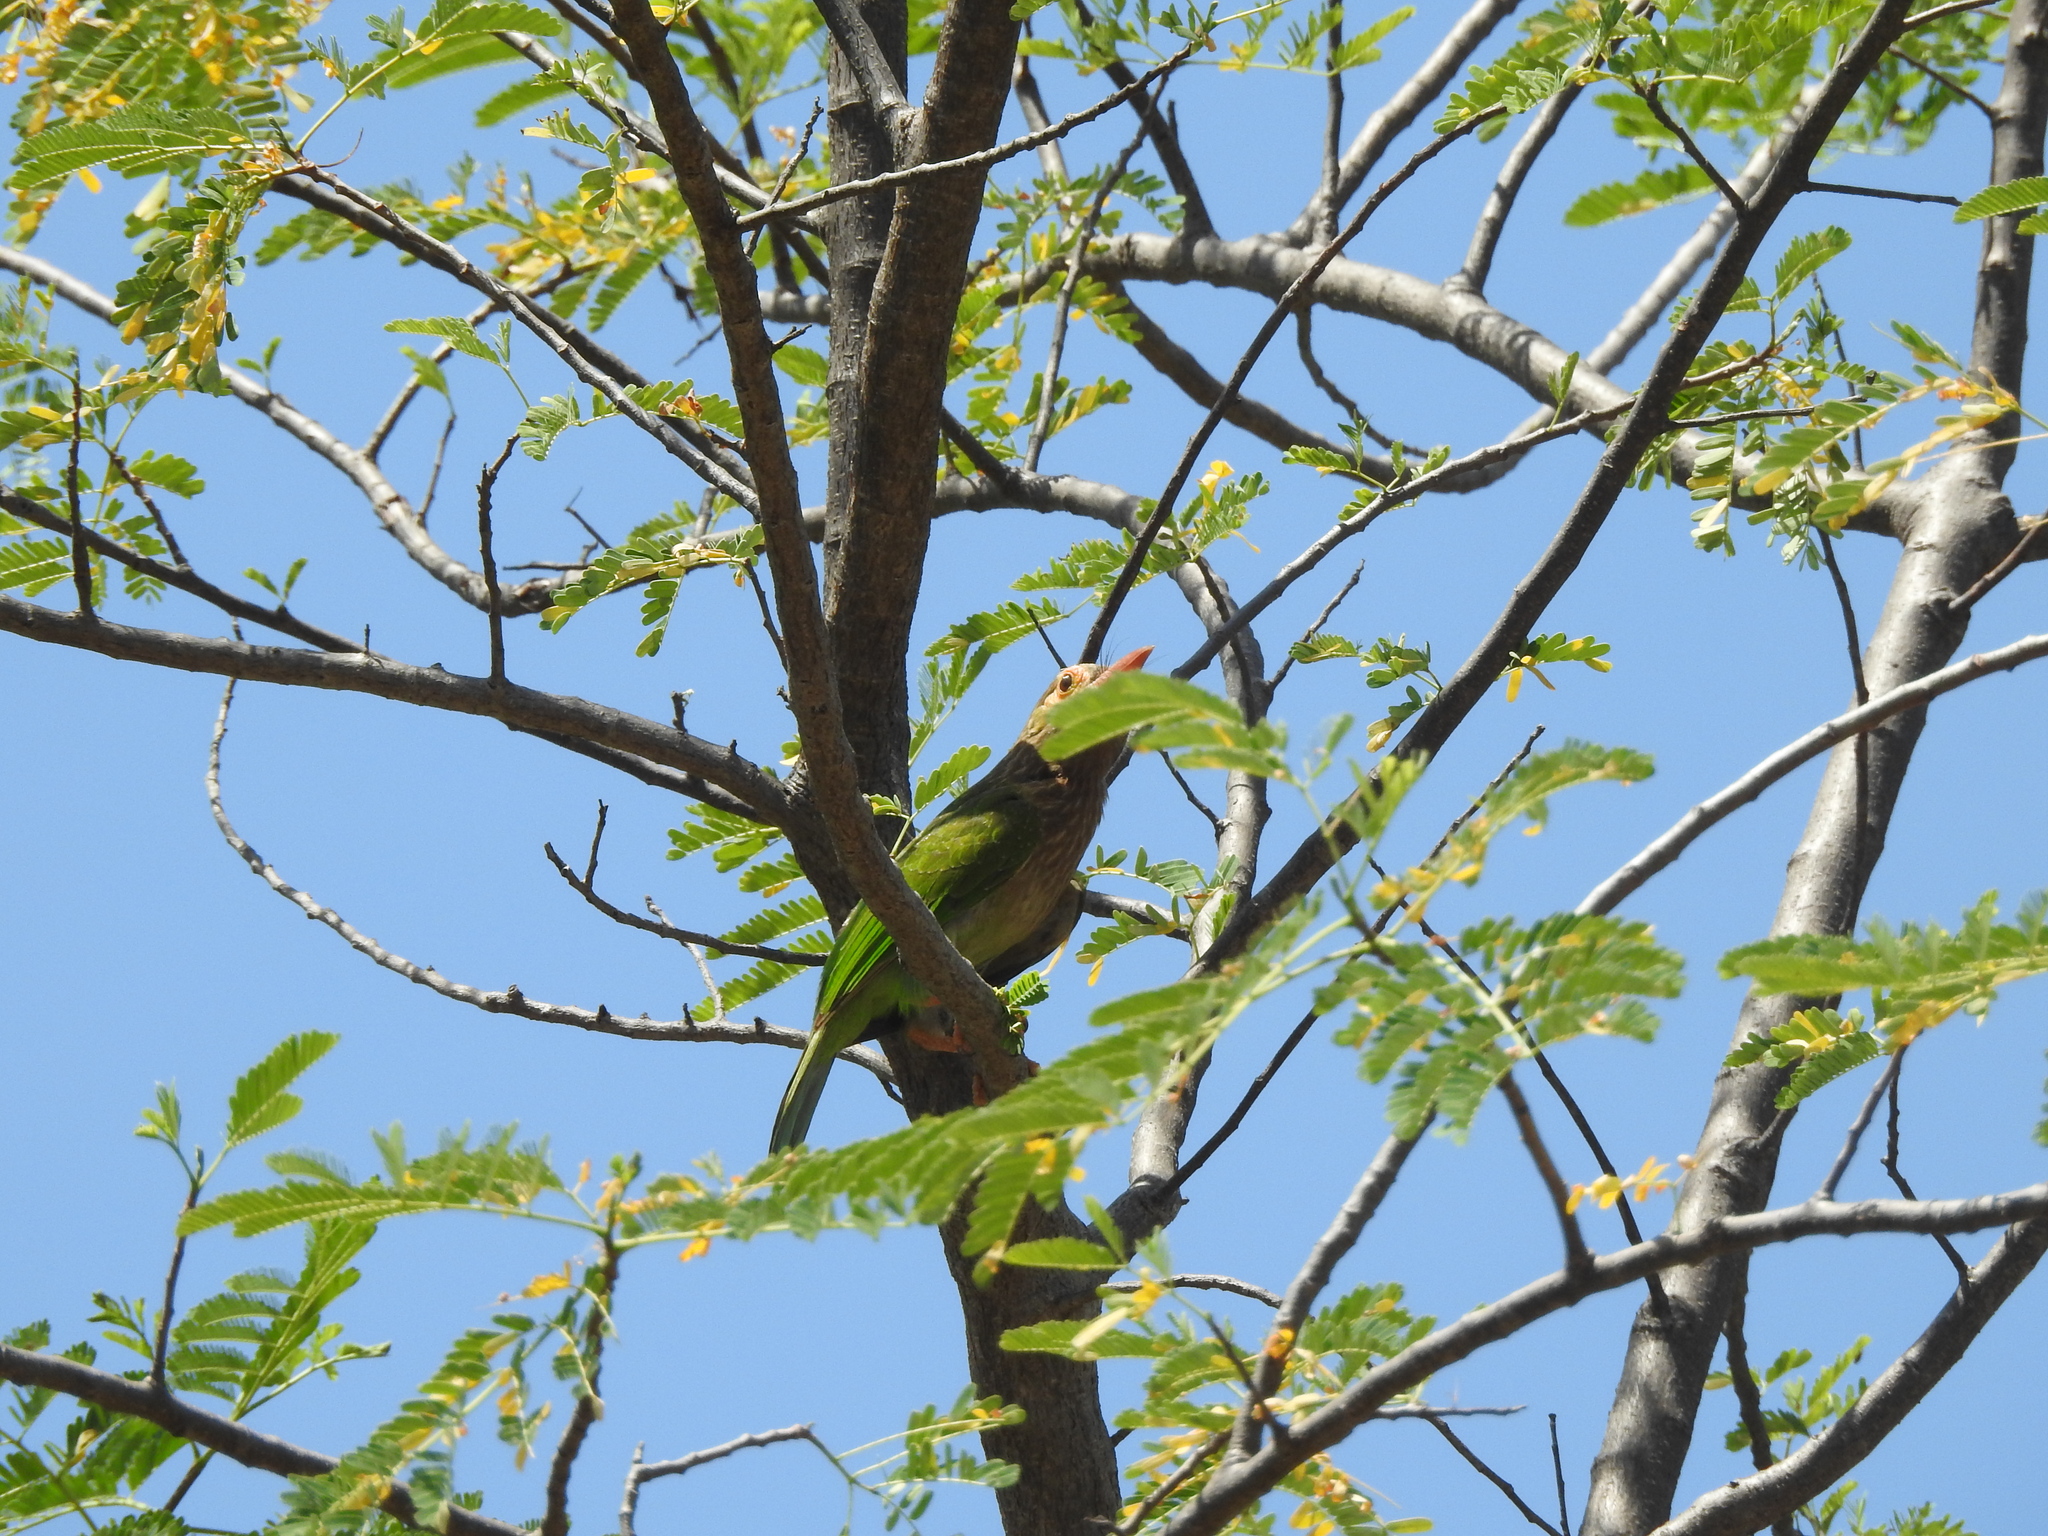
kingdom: Animalia
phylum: Chordata
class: Aves
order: Piciformes
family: Megalaimidae
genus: Psilopogon
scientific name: Psilopogon zeylanicus
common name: Brown-headed barbet
